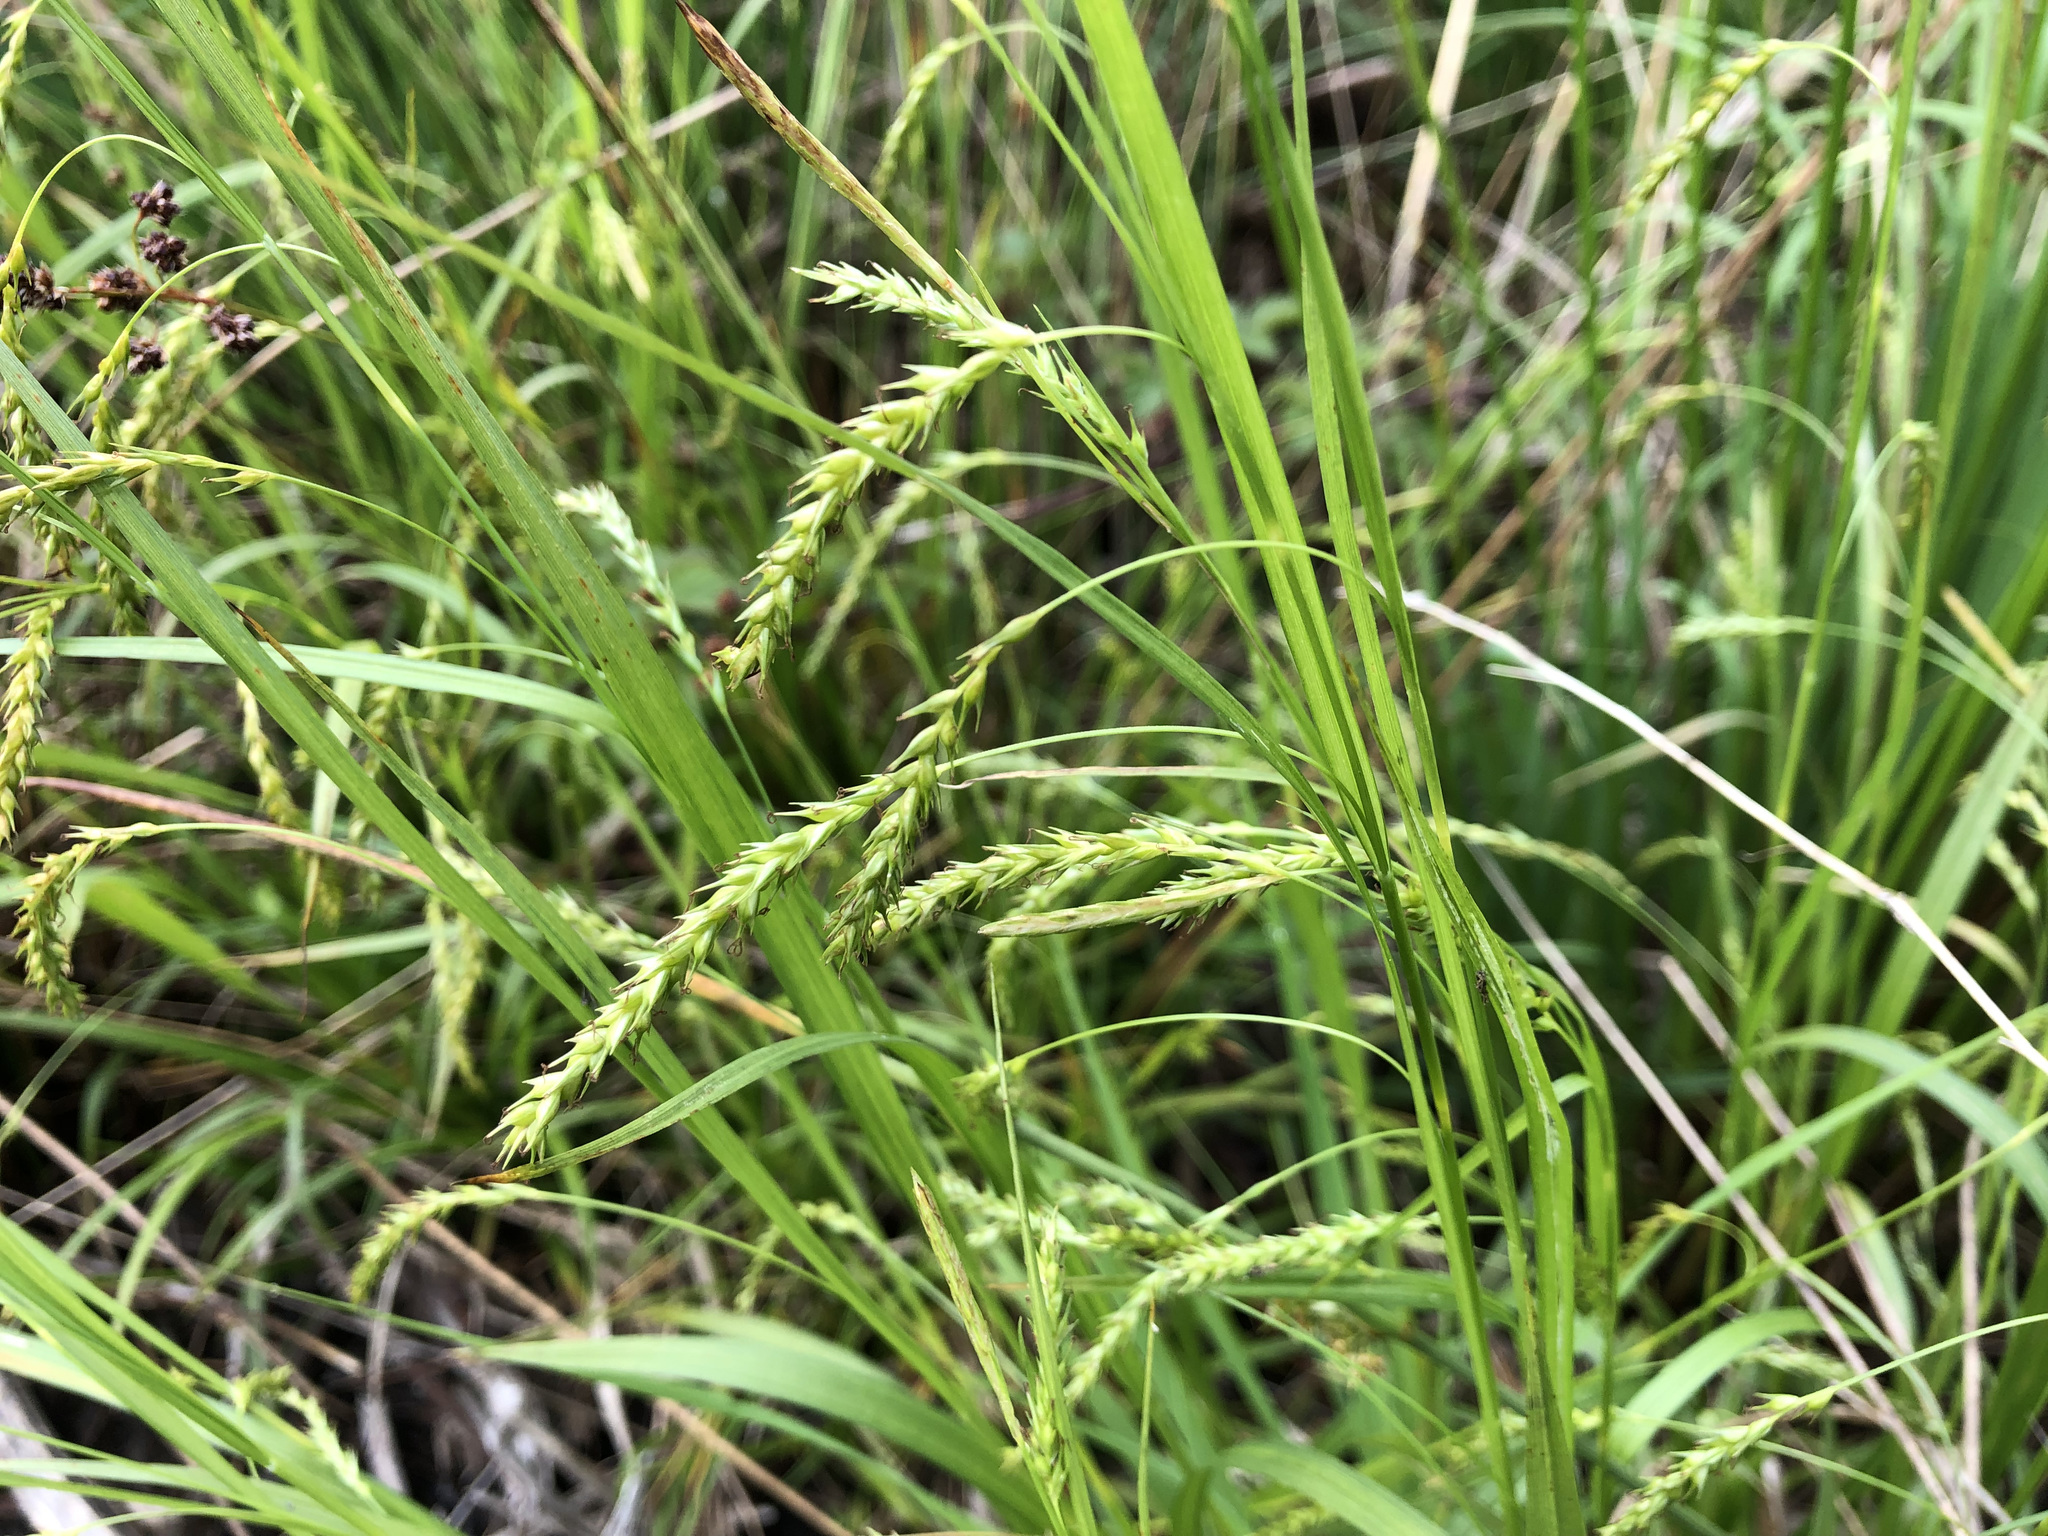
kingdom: Plantae
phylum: Tracheophyta
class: Liliopsida
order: Poales
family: Cyperaceae
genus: Carex
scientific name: Carex sylvatica
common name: Wood-sedge
